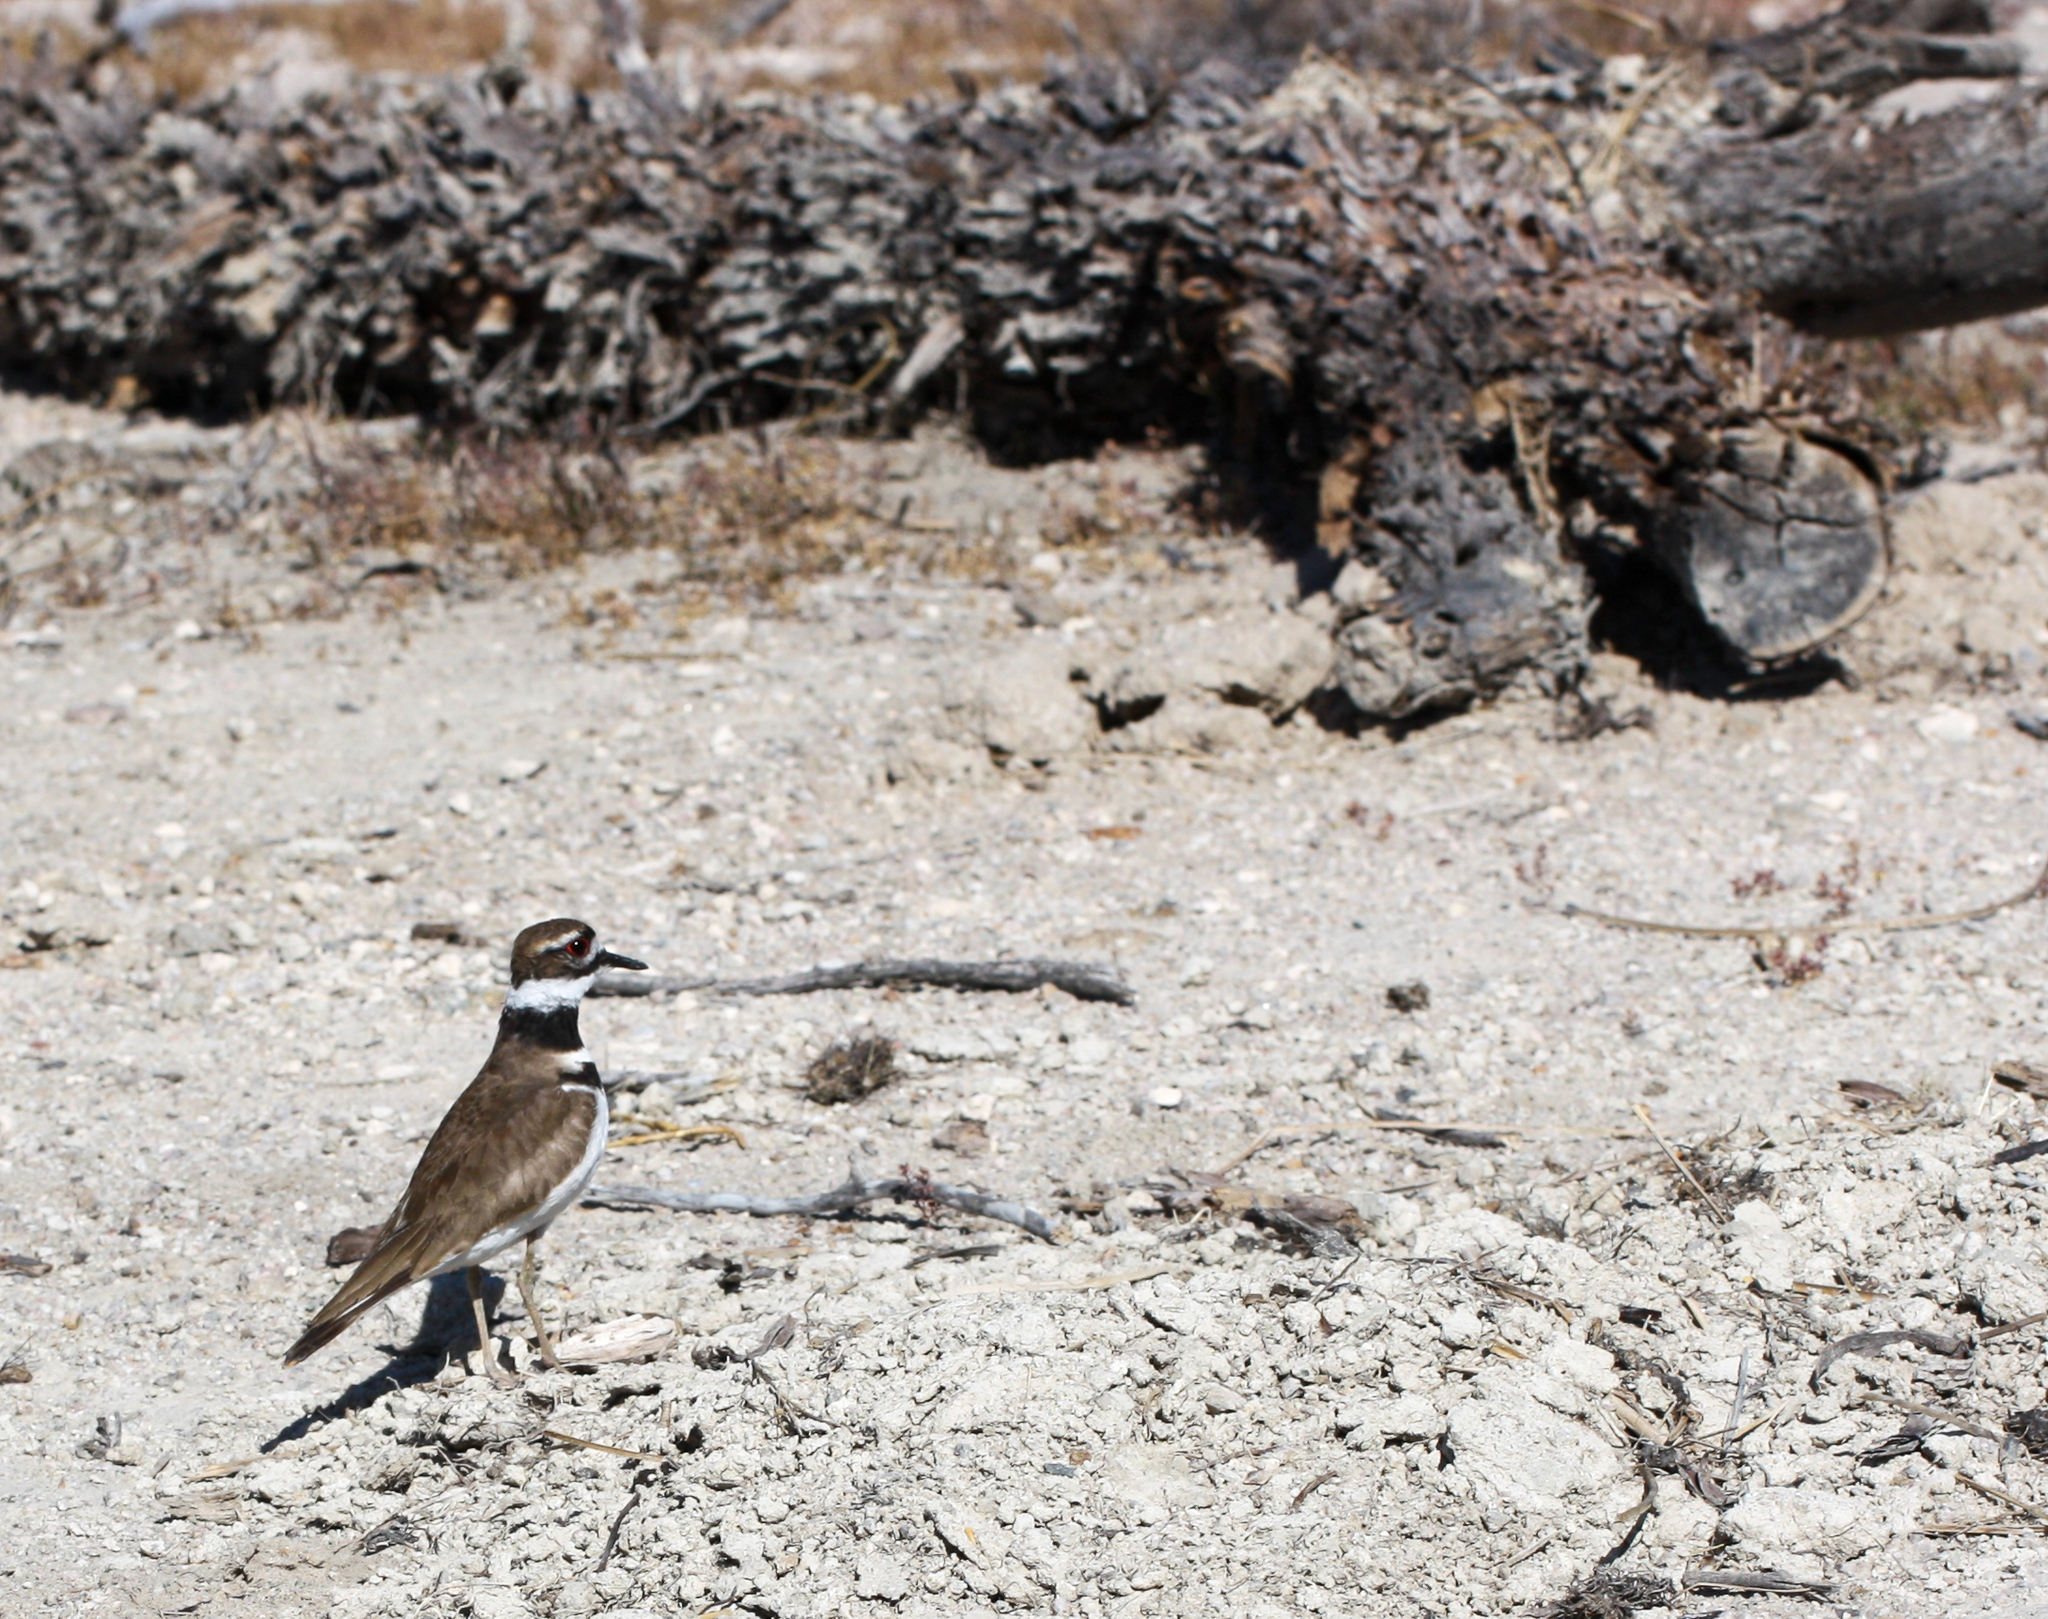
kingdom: Animalia
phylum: Chordata
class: Aves
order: Charadriiformes
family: Charadriidae
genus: Charadrius
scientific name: Charadrius vociferus
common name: Killdeer
